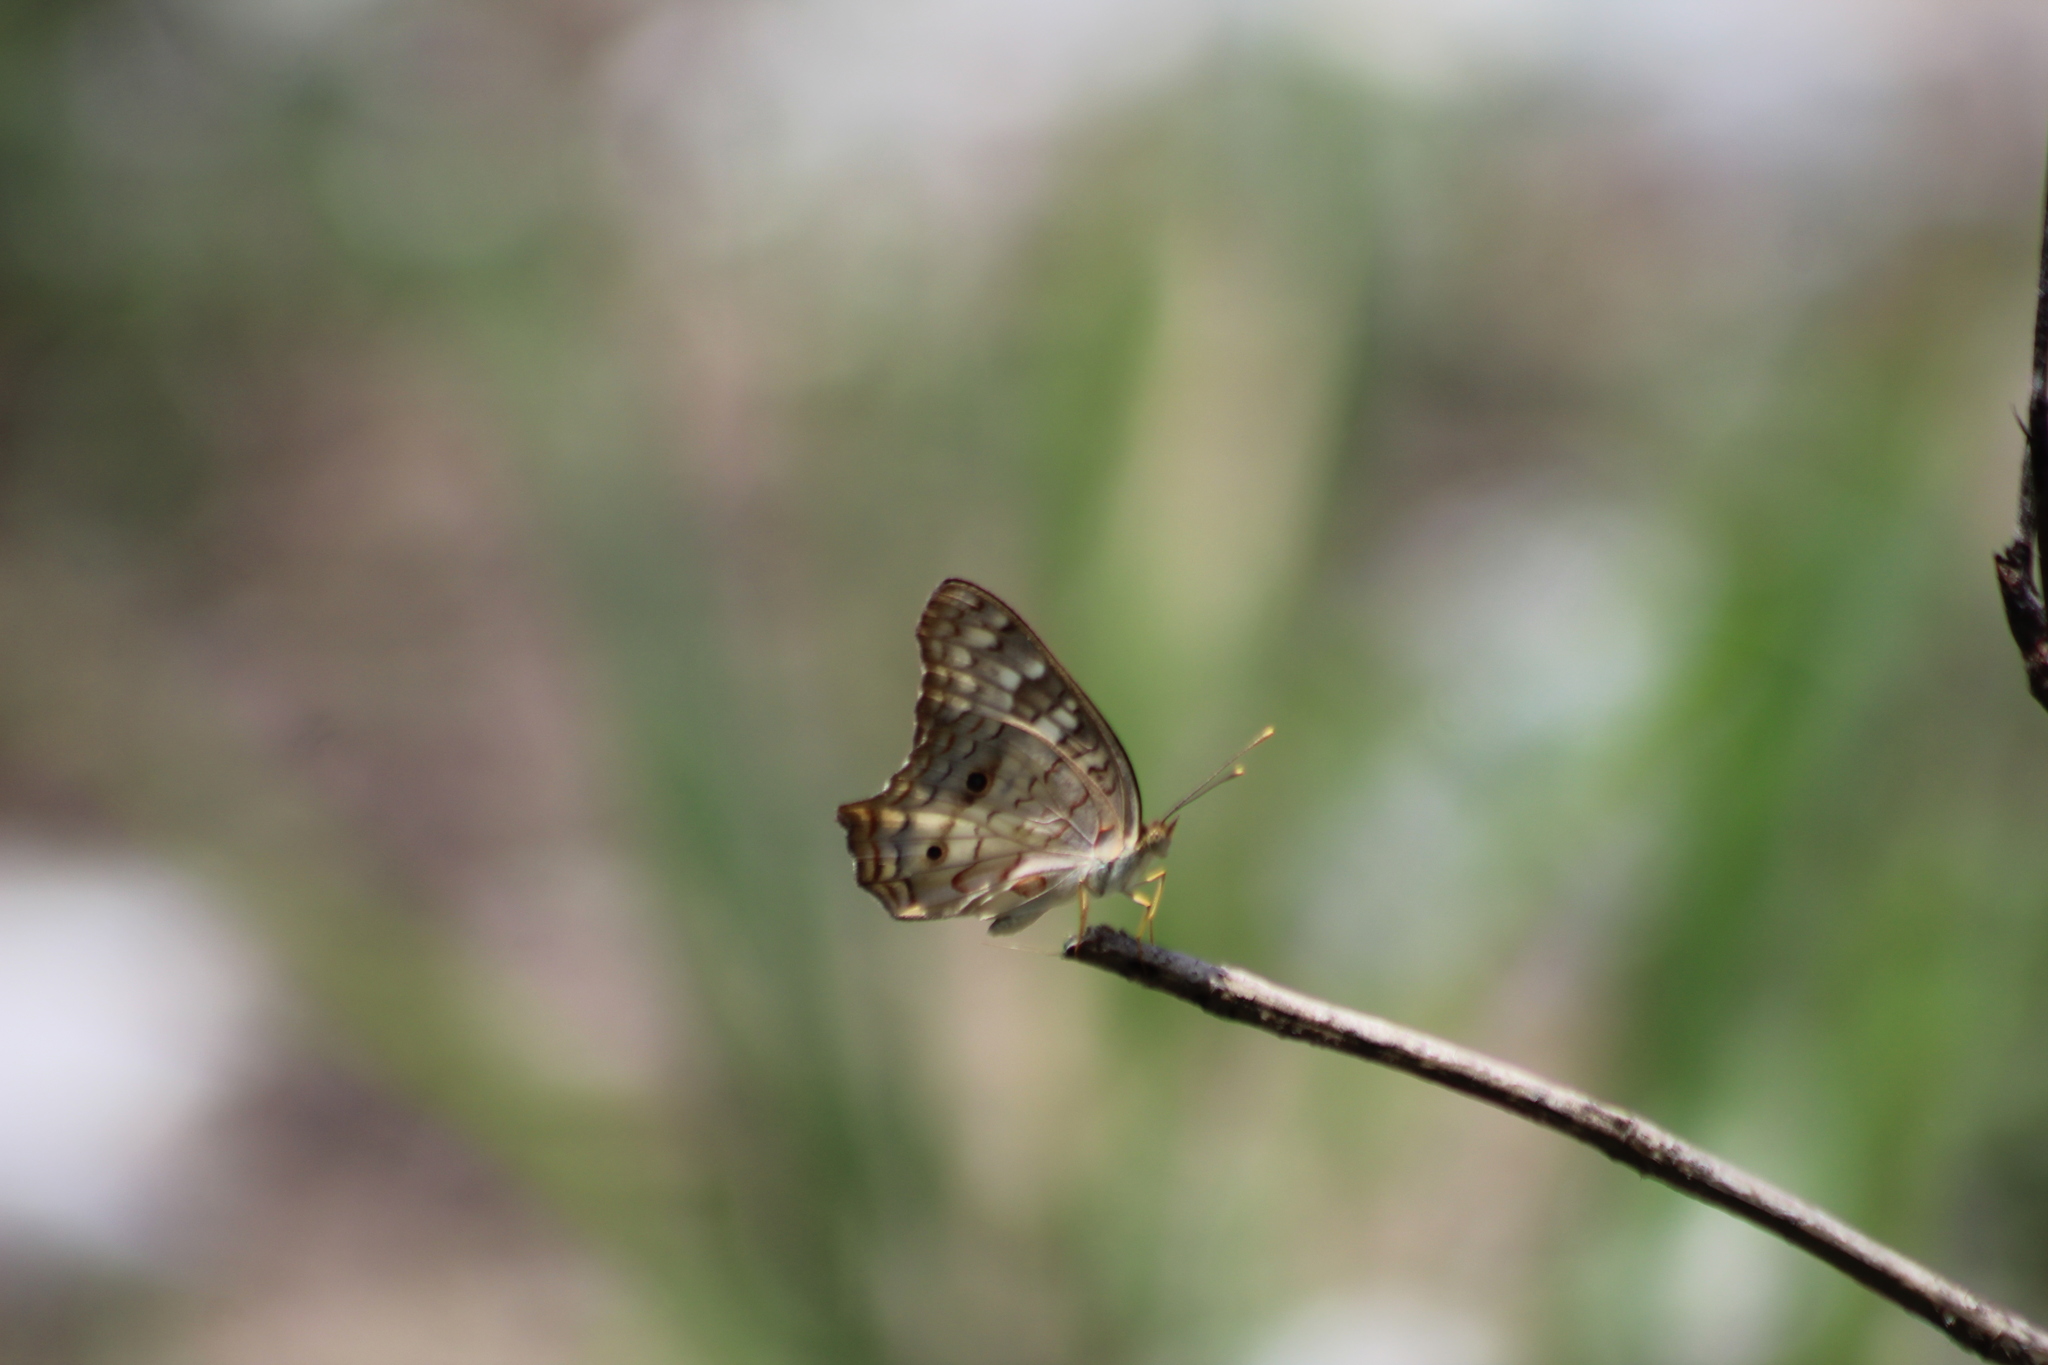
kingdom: Animalia
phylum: Arthropoda
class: Insecta
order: Lepidoptera
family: Nymphalidae
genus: Anartia
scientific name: Anartia jatrophae
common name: White peacock
